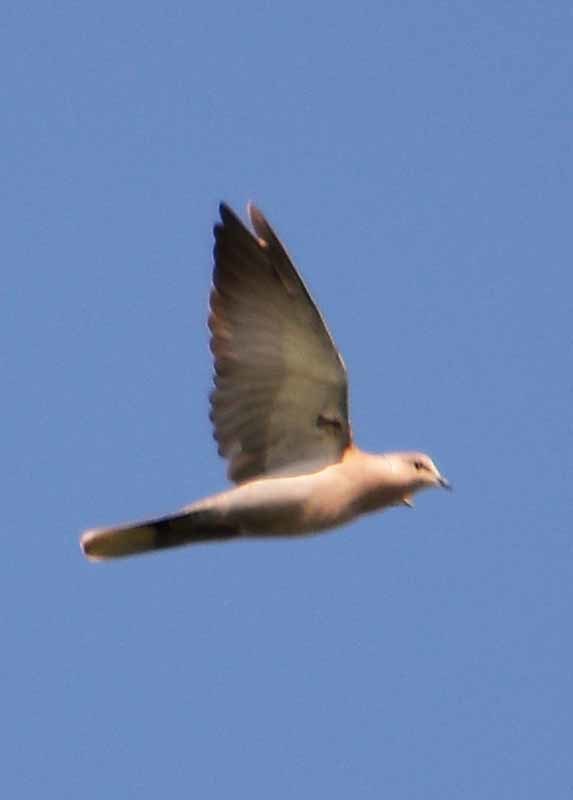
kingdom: Animalia
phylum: Chordata
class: Aves
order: Columbiformes
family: Columbidae
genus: Streptopelia
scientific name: Streptopelia decaocto
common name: Eurasian collared dove
